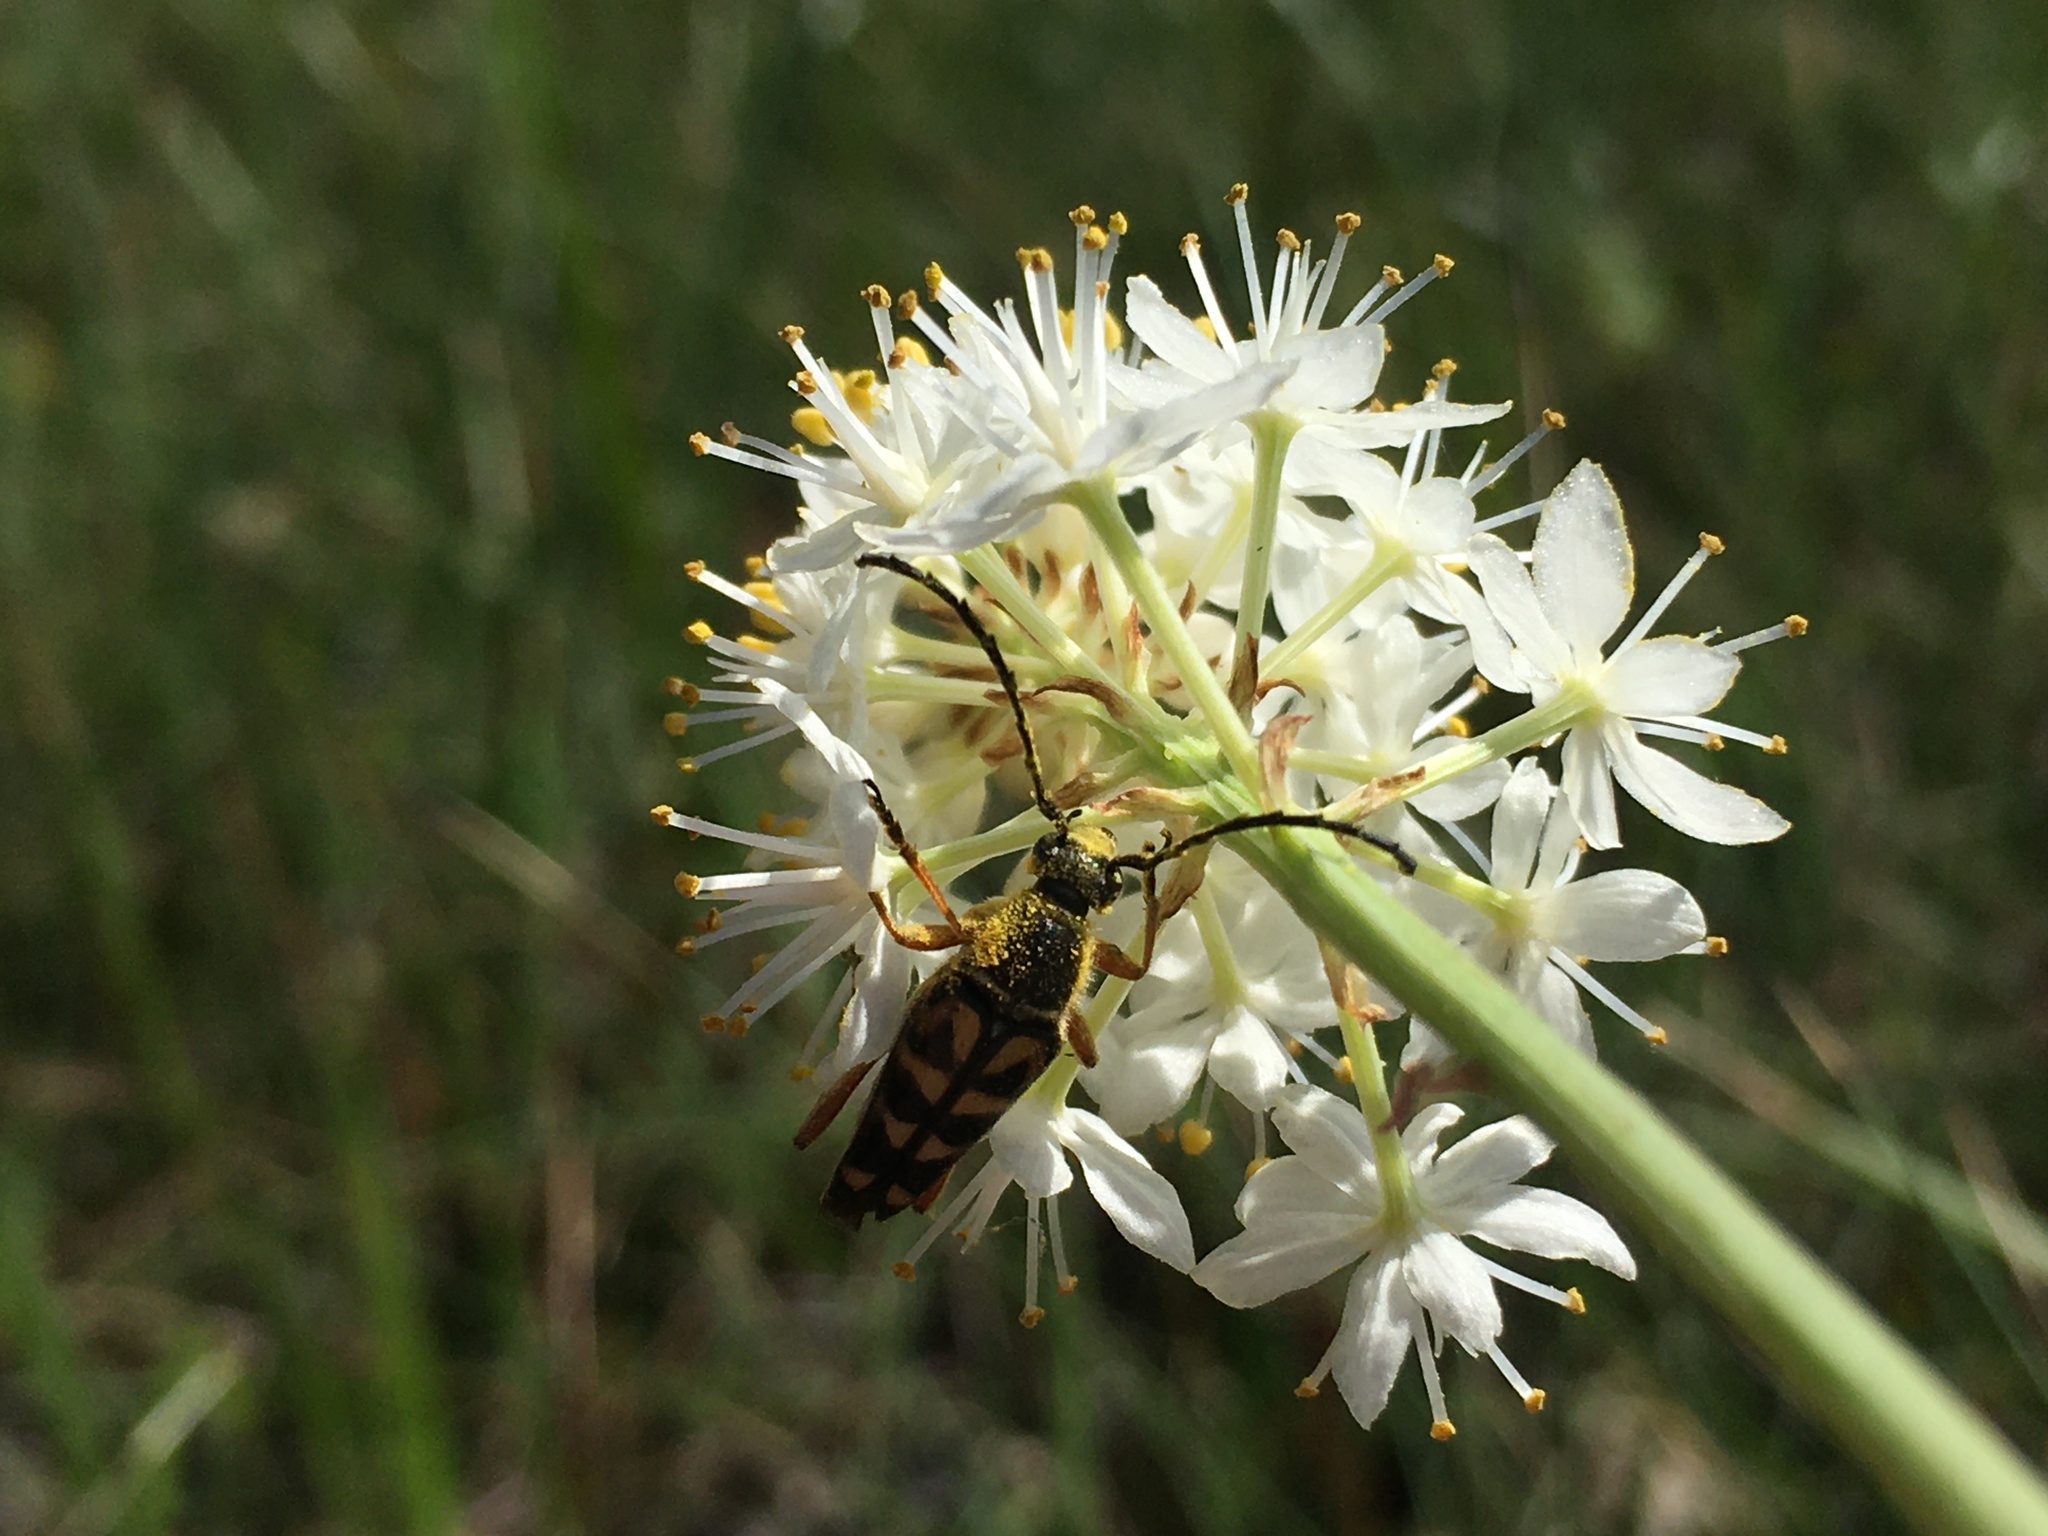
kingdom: Animalia
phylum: Arthropoda
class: Insecta
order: Coleoptera
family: Cerambycidae
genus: Typocerus
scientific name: Typocerus zebra
